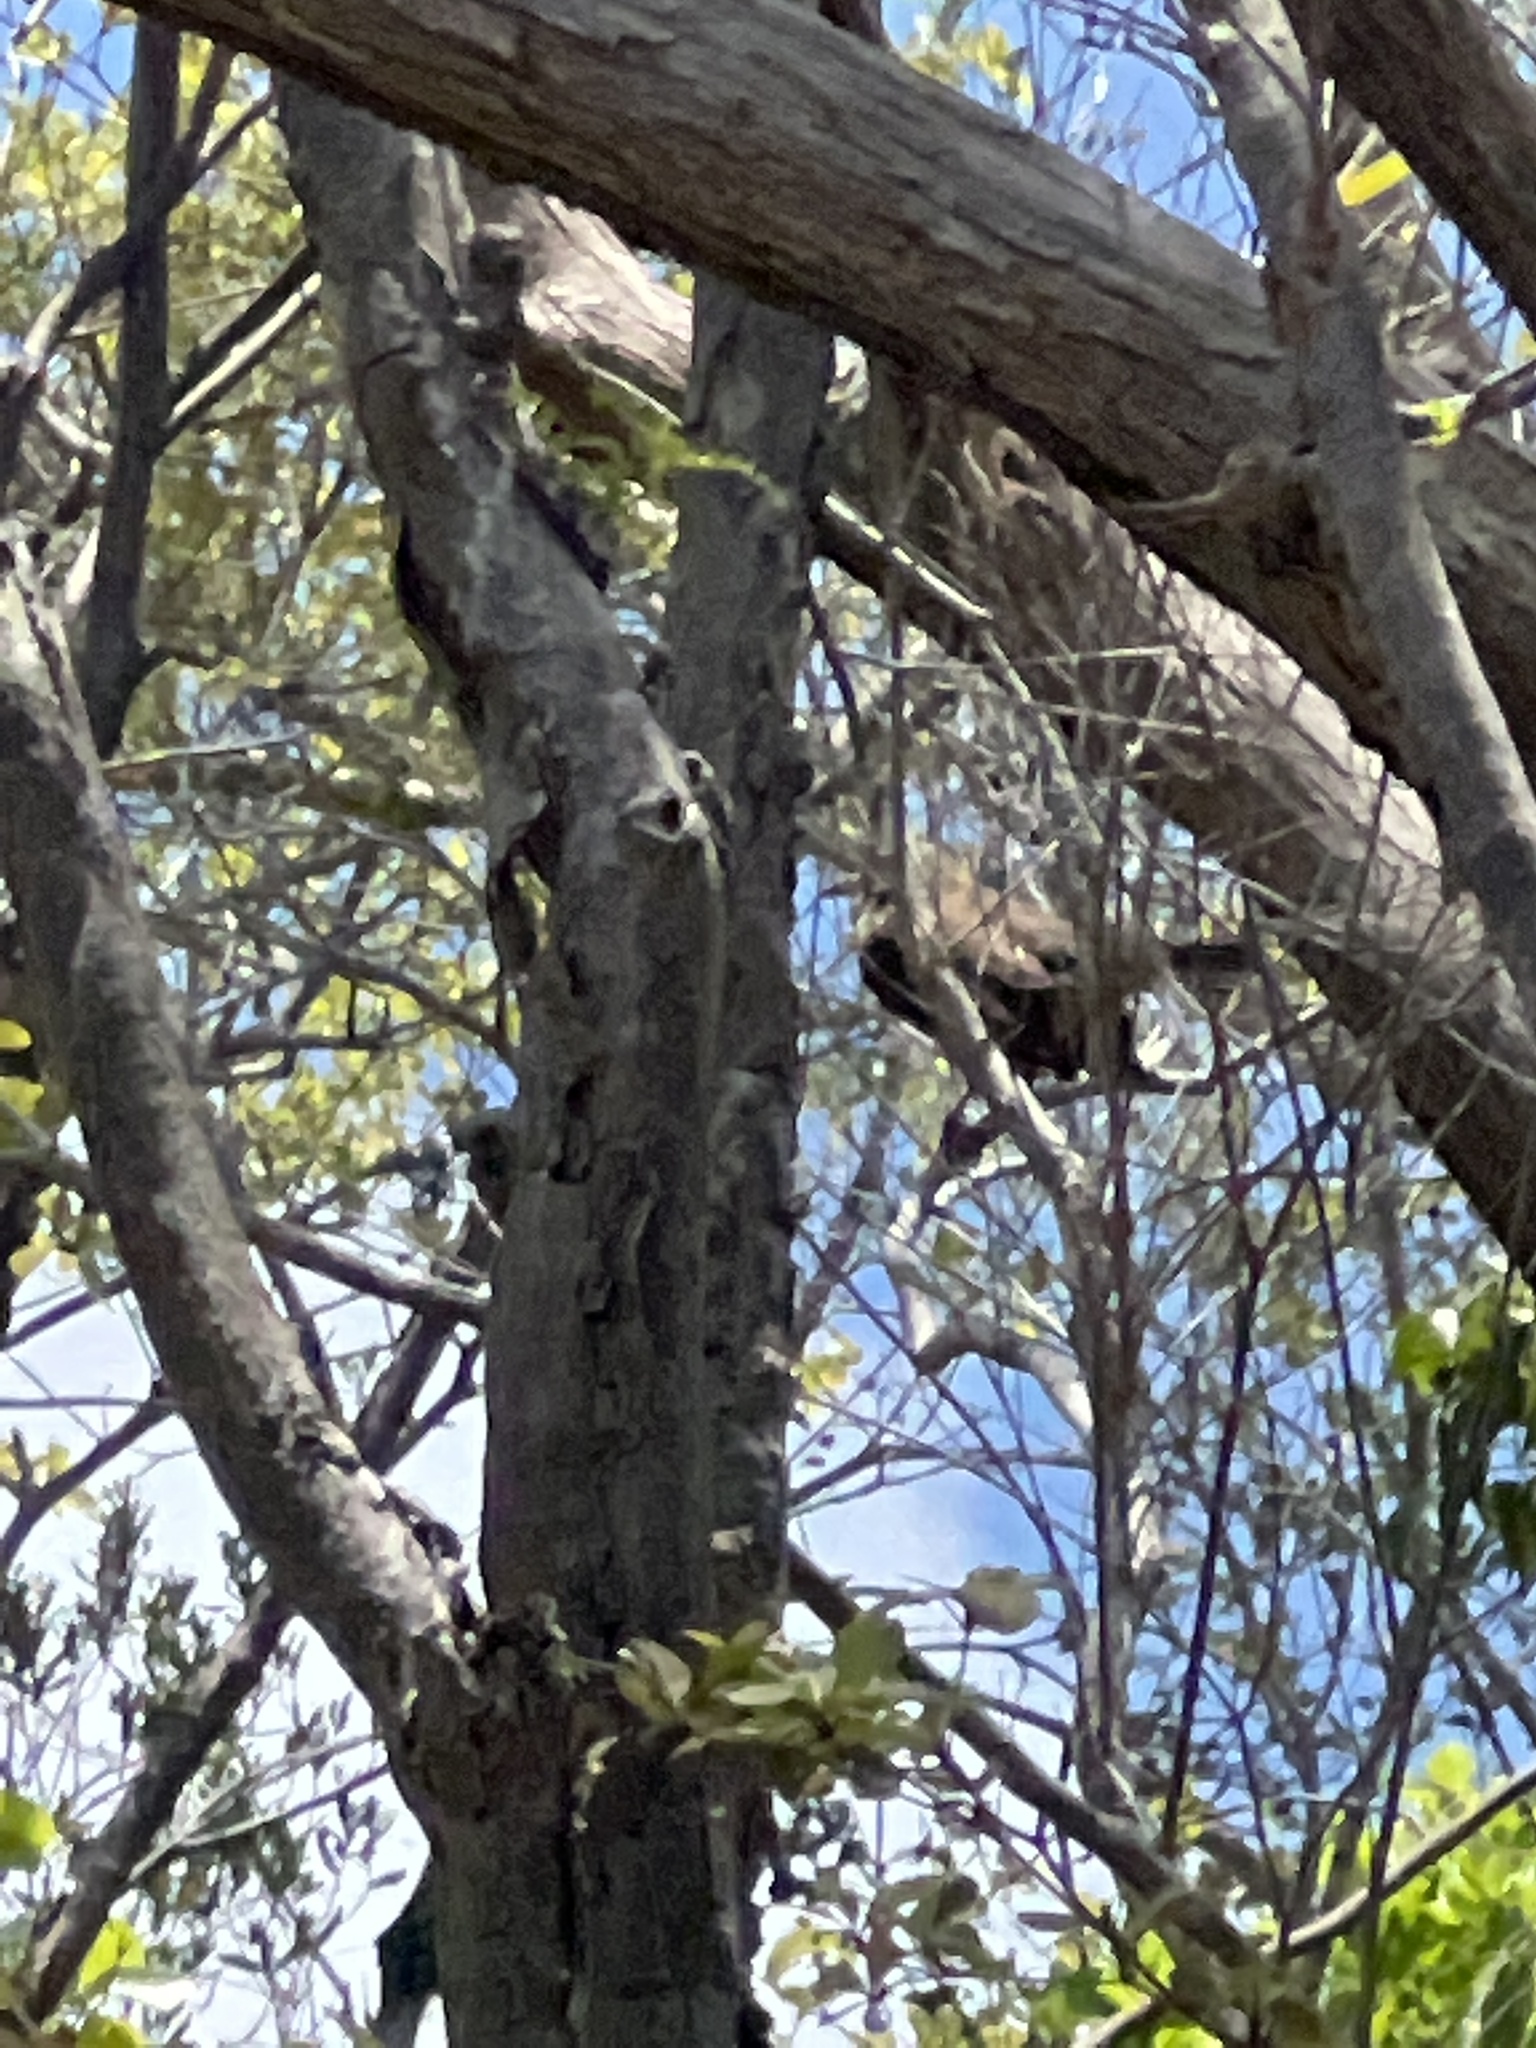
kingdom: Animalia
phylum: Chordata
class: Aves
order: Passeriformes
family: Mimidae
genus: Margarops
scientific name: Margarops fuscatus
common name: Pearly-eyed thrasher
